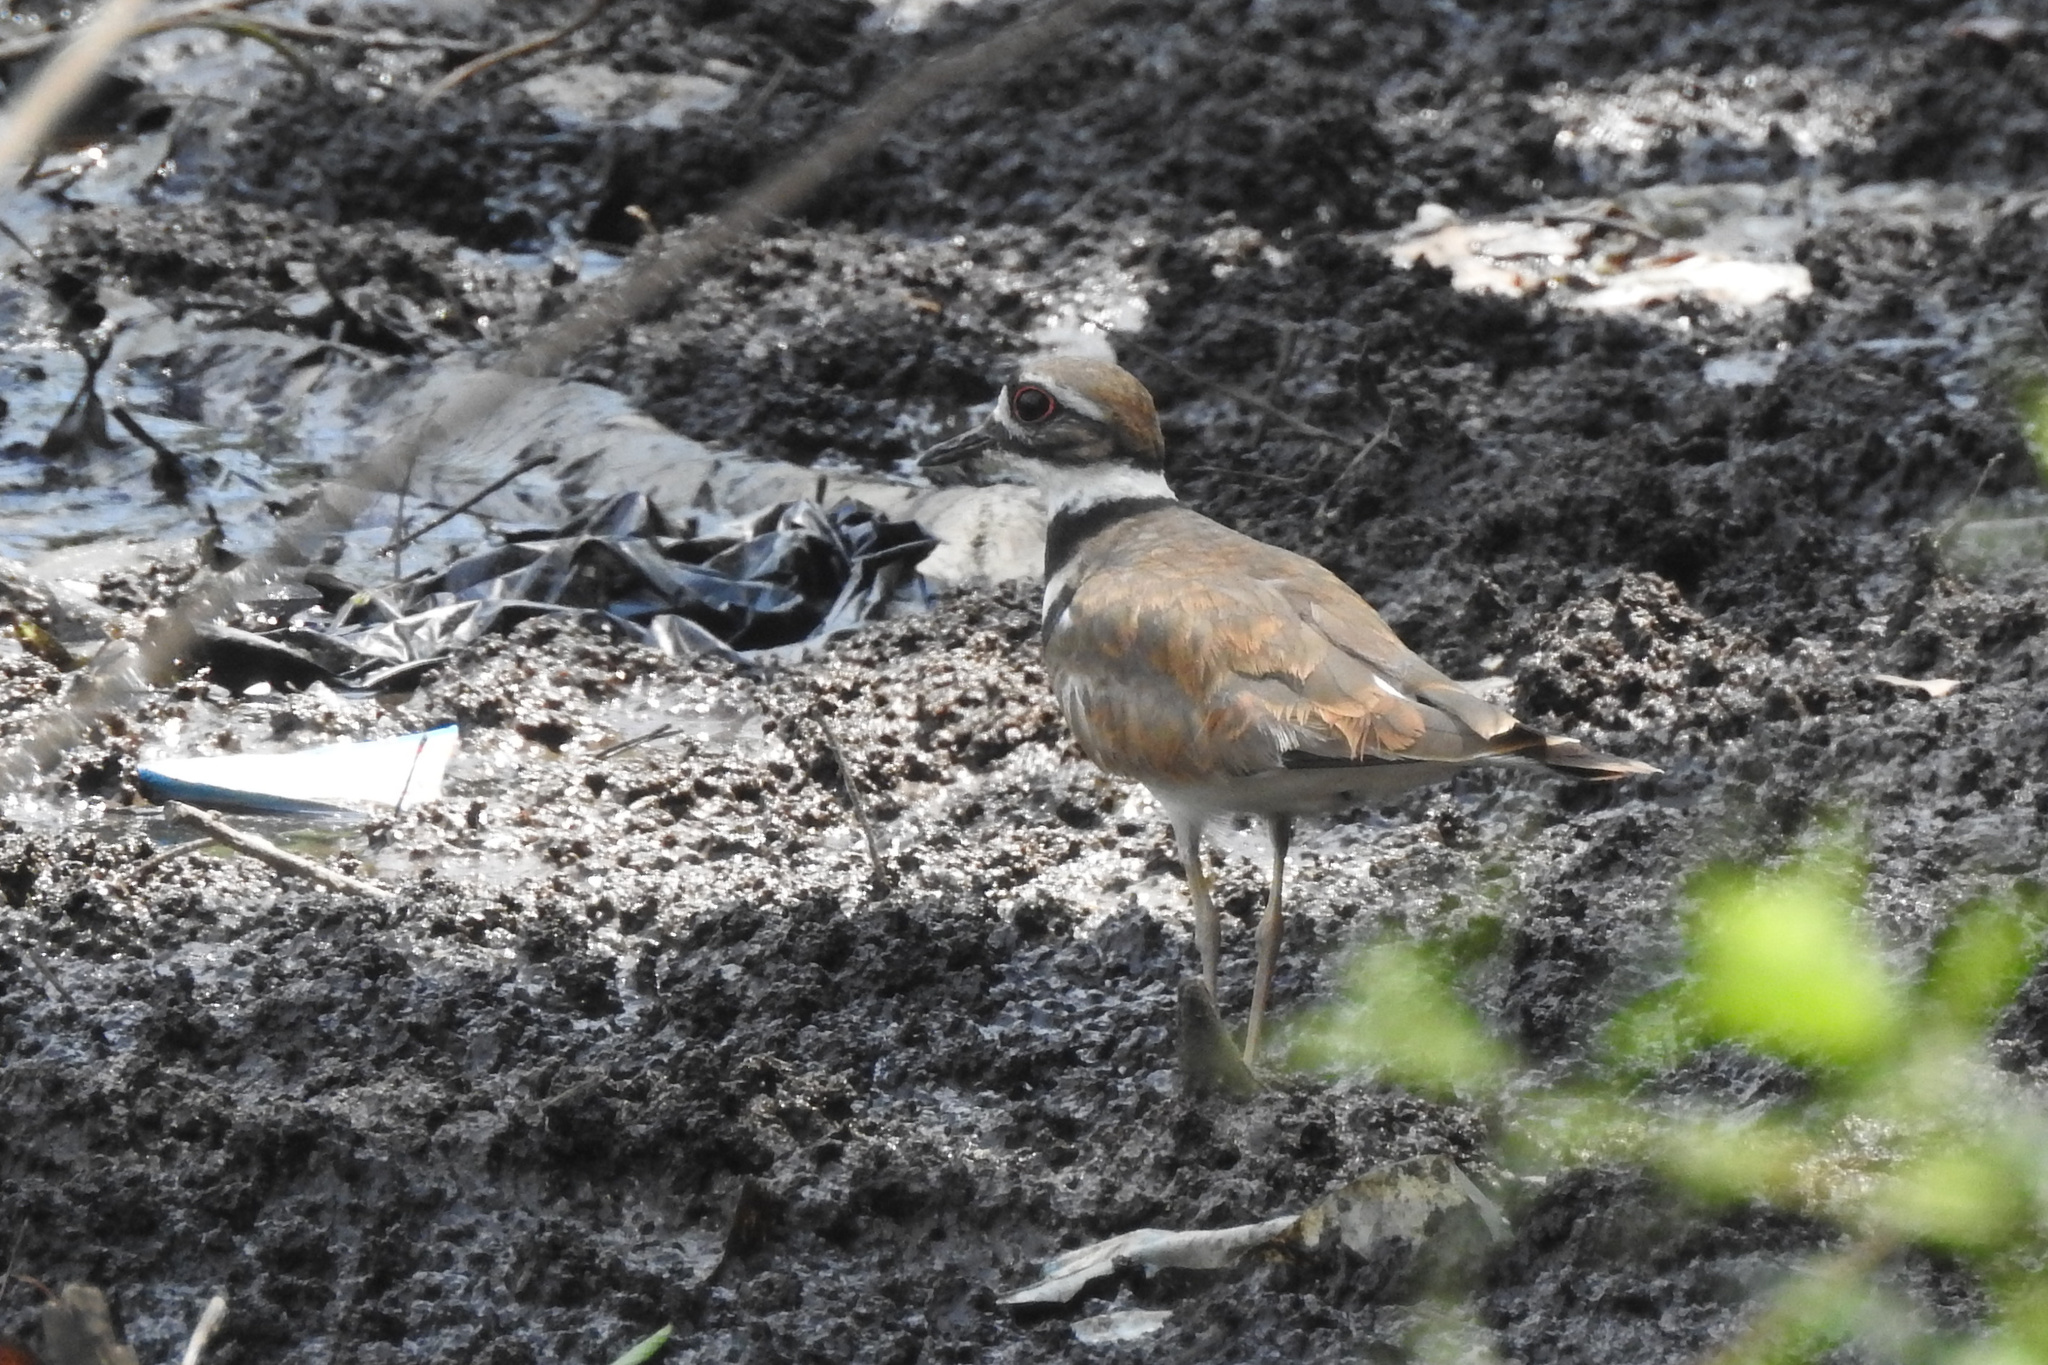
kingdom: Animalia
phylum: Chordata
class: Aves
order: Charadriiformes
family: Charadriidae
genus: Charadrius
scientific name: Charadrius vociferus
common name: Killdeer
